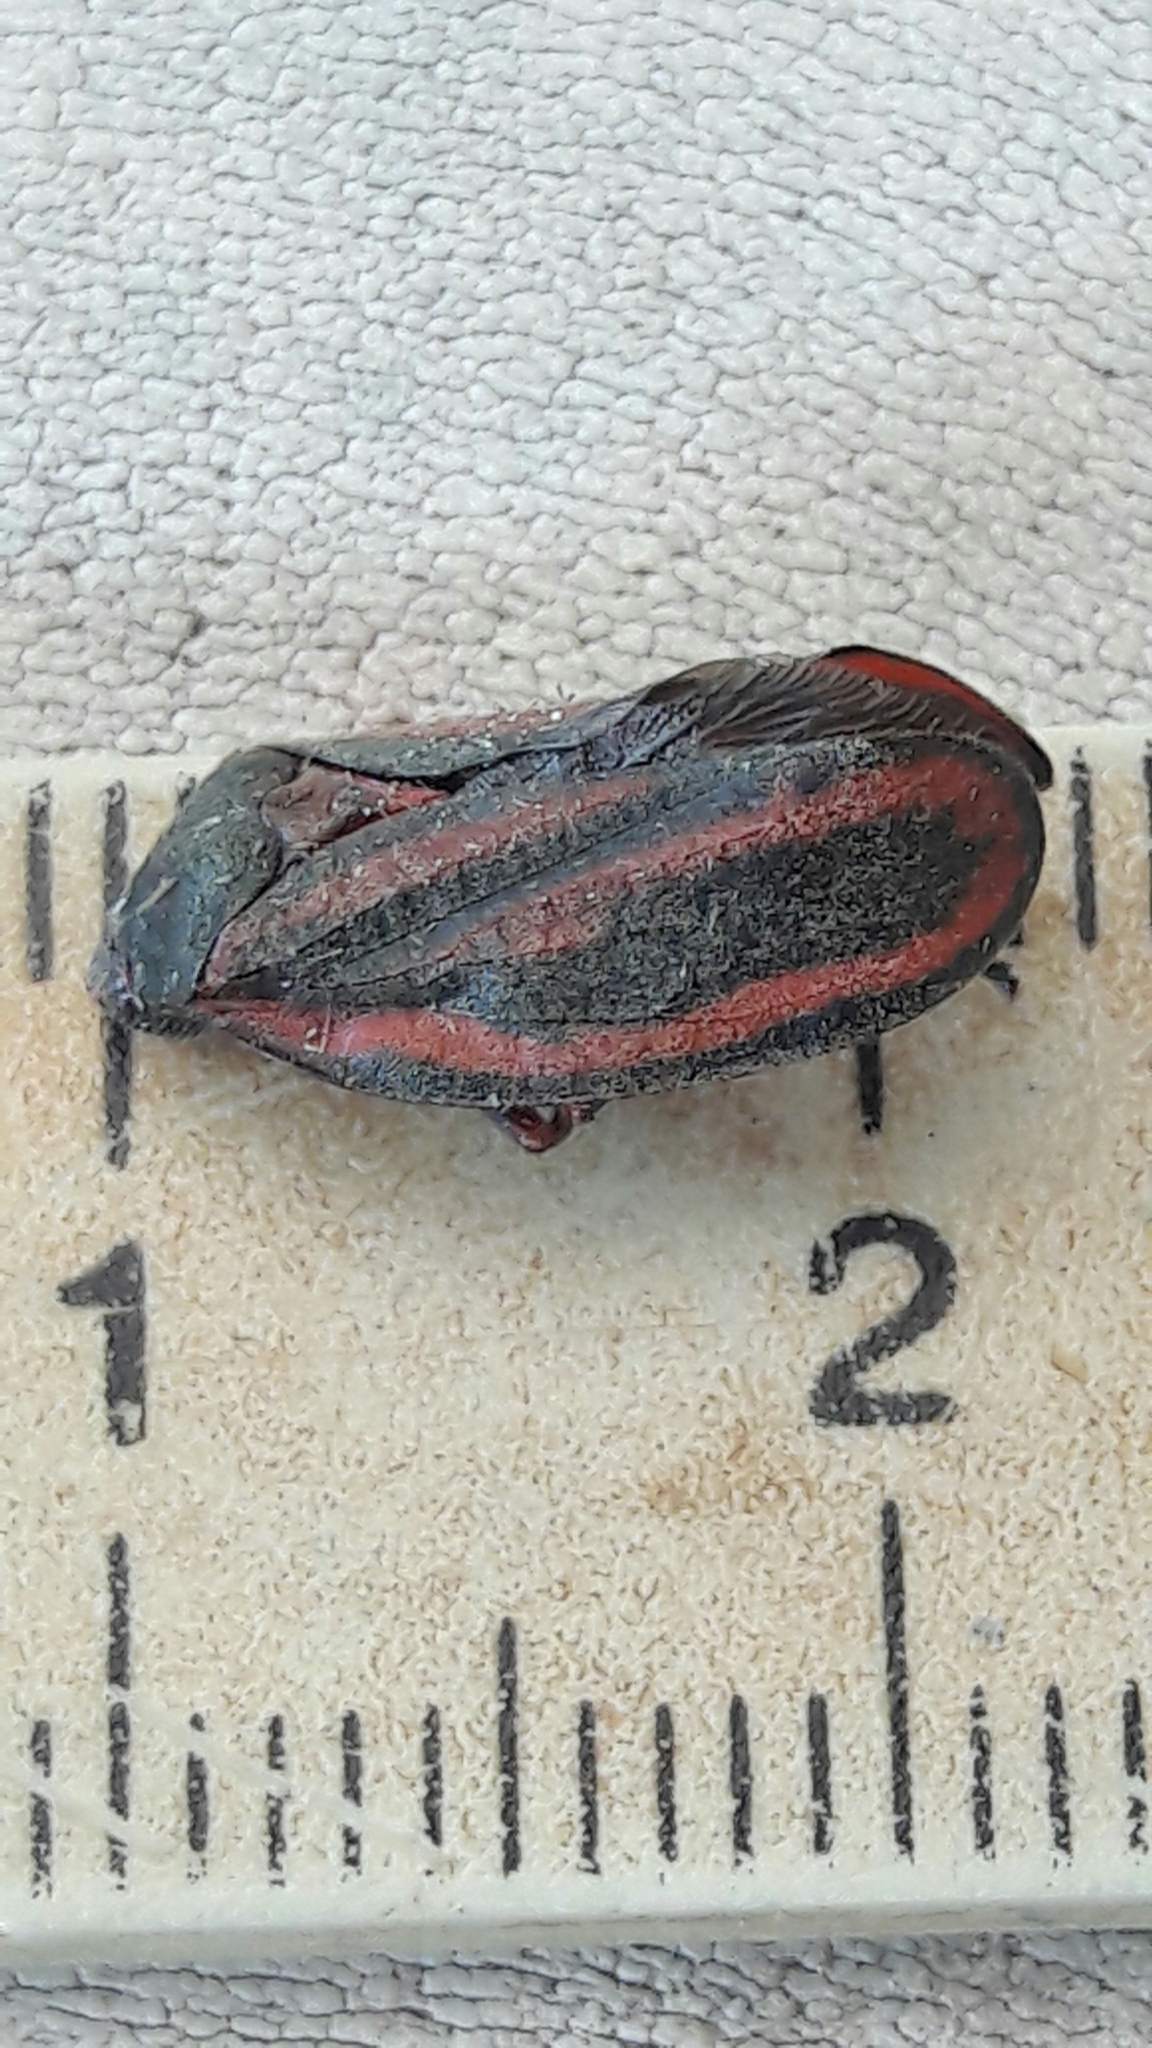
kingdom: Animalia
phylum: Arthropoda
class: Insecta
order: Hemiptera
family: Cercopidae
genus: Mahanarva
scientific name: Mahanarva fimbriolata
